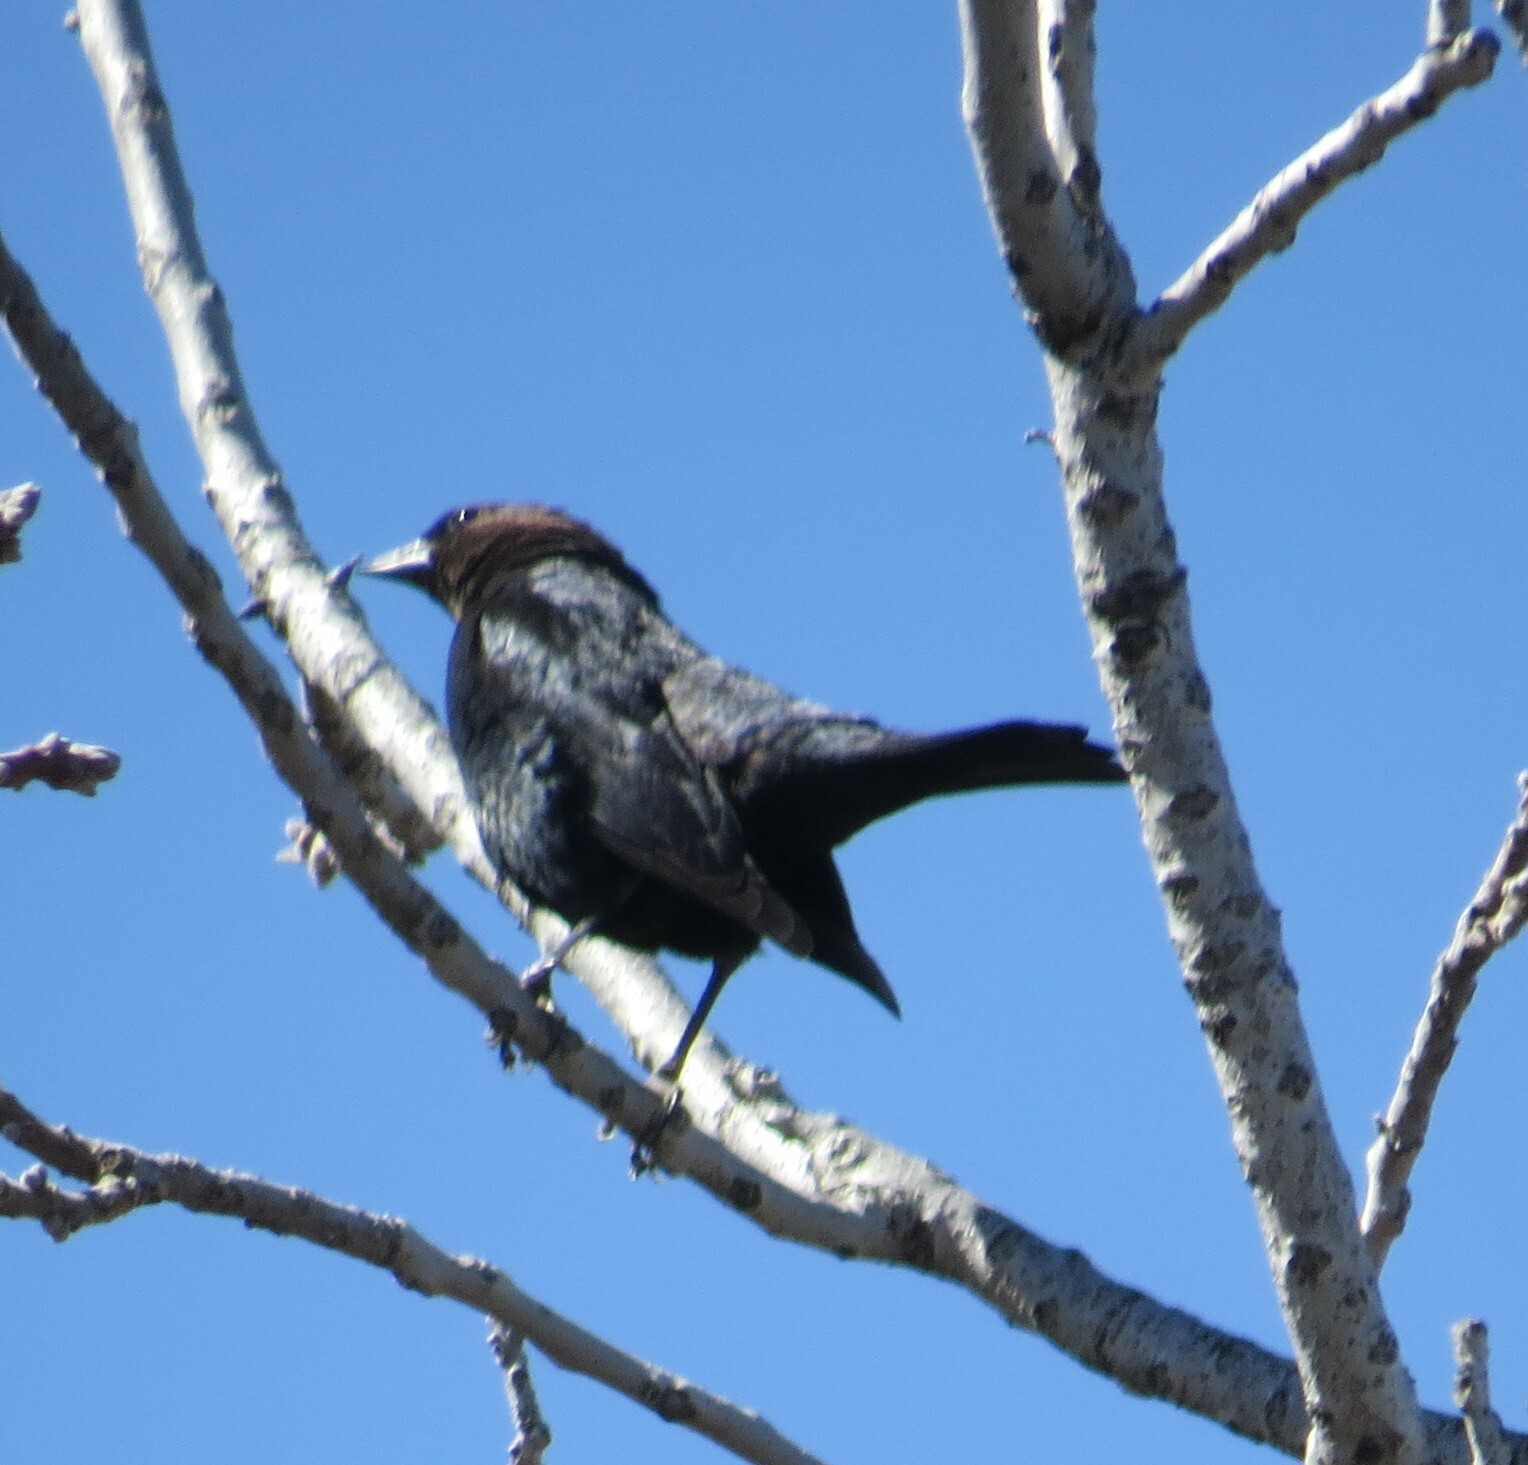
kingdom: Animalia
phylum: Chordata
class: Aves
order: Passeriformes
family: Icteridae
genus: Molothrus
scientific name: Molothrus ater
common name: Brown-headed cowbird
